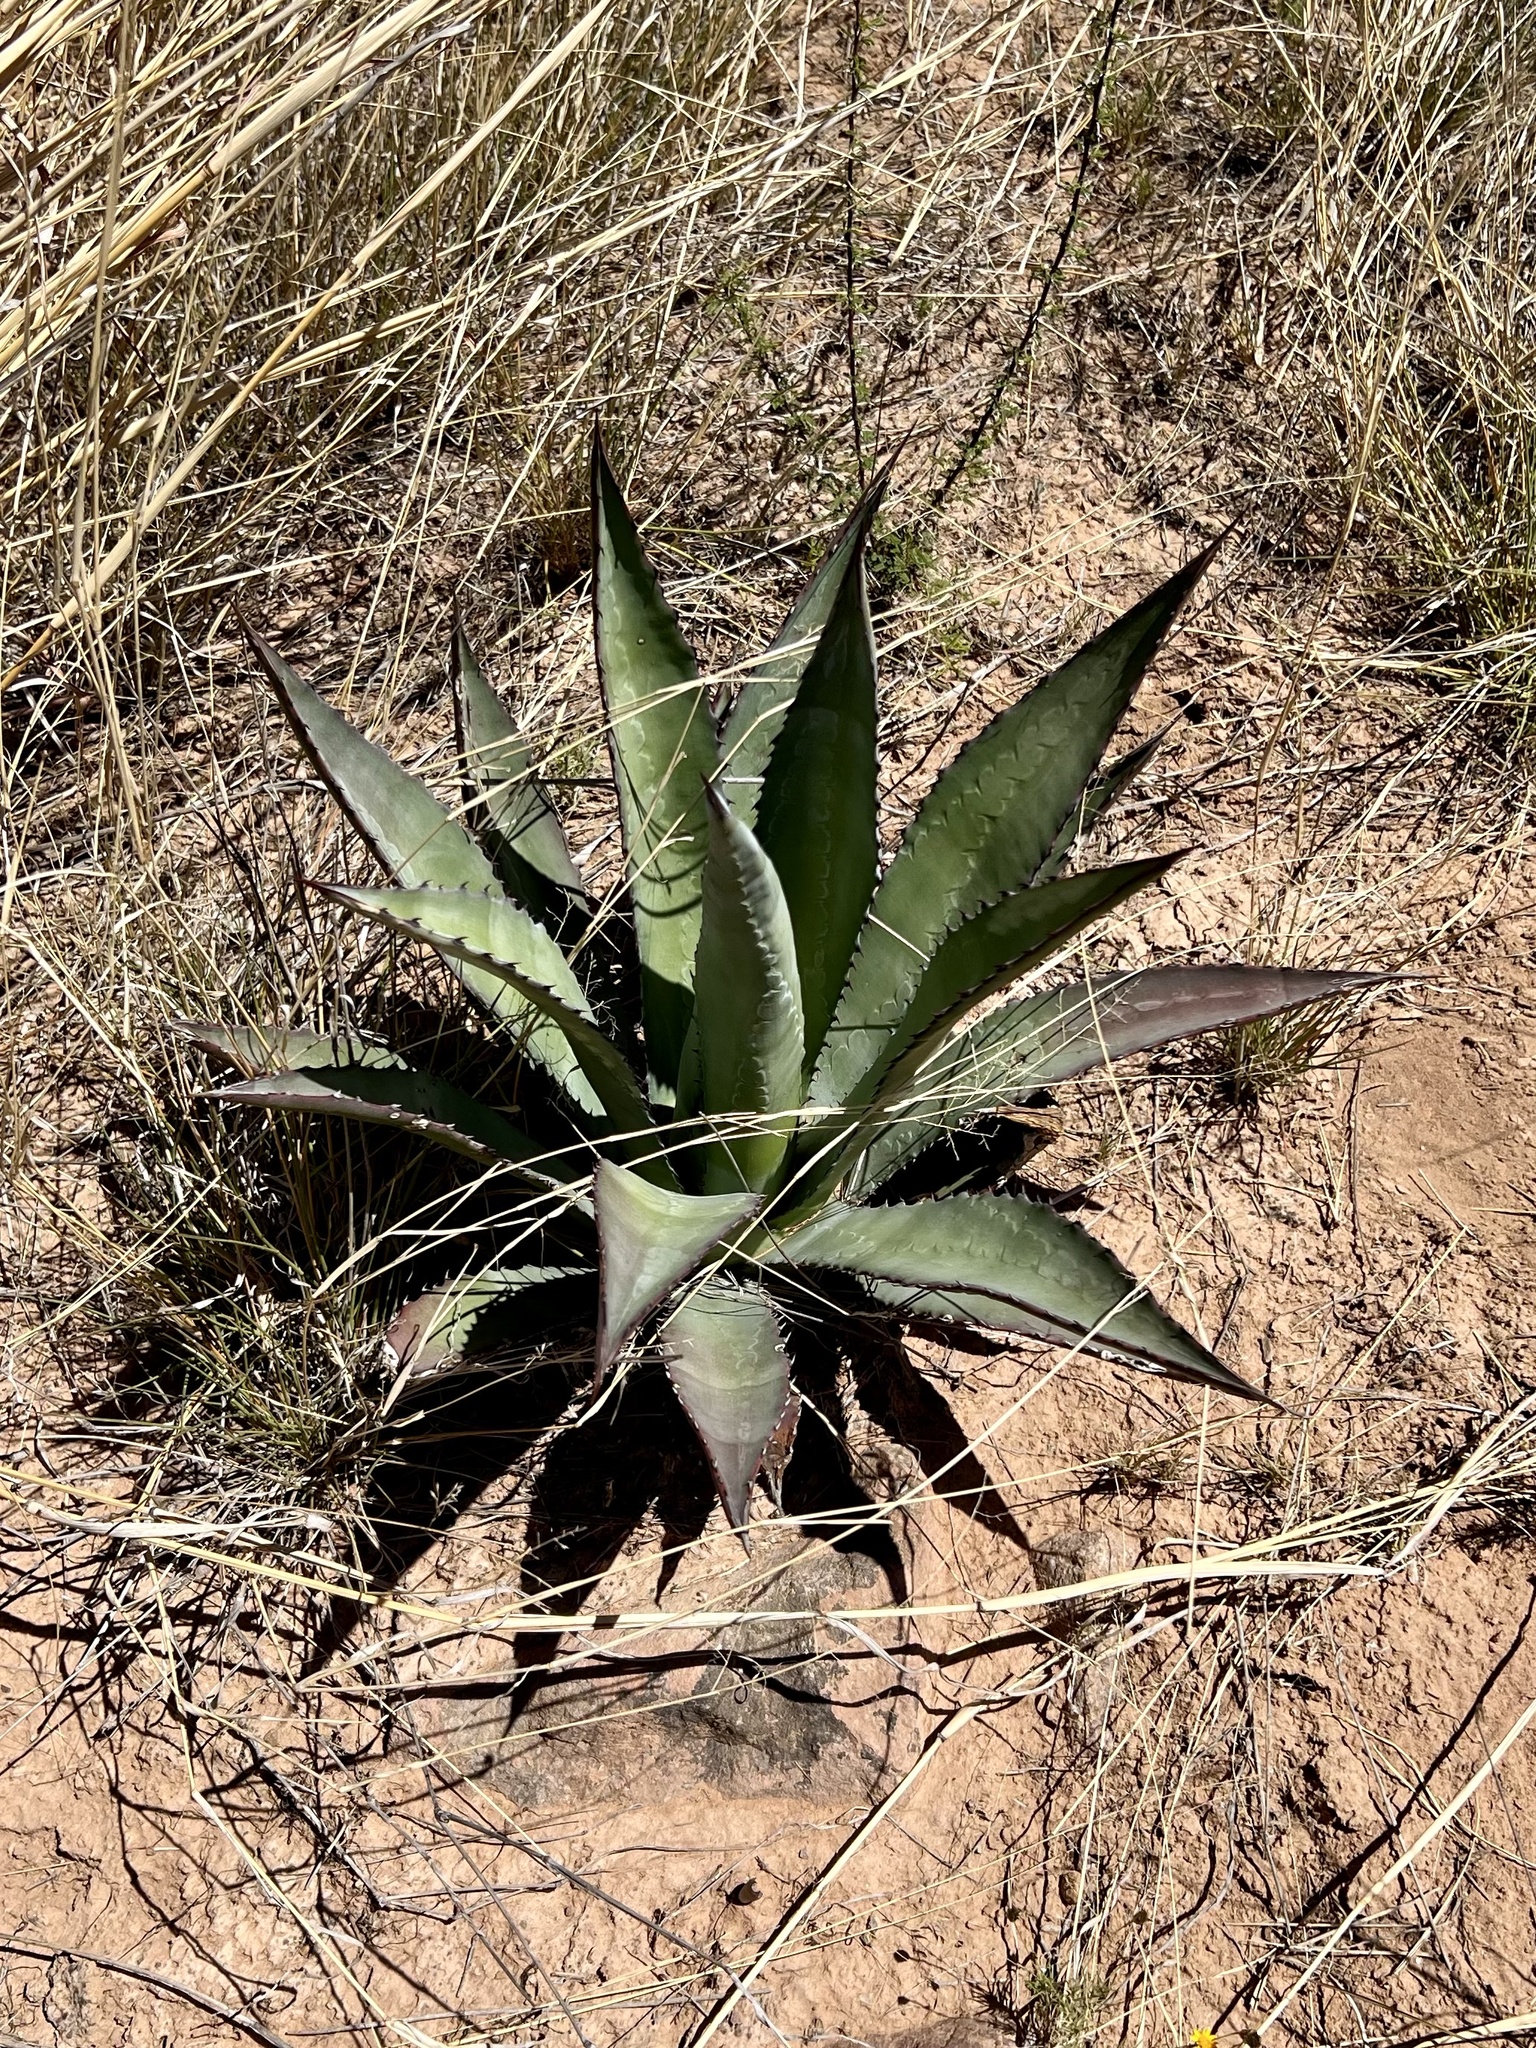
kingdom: Plantae
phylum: Tracheophyta
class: Liliopsida
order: Asparagales
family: Asparagaceae
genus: Agave
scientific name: Agave palmeri
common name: Palmer agave
